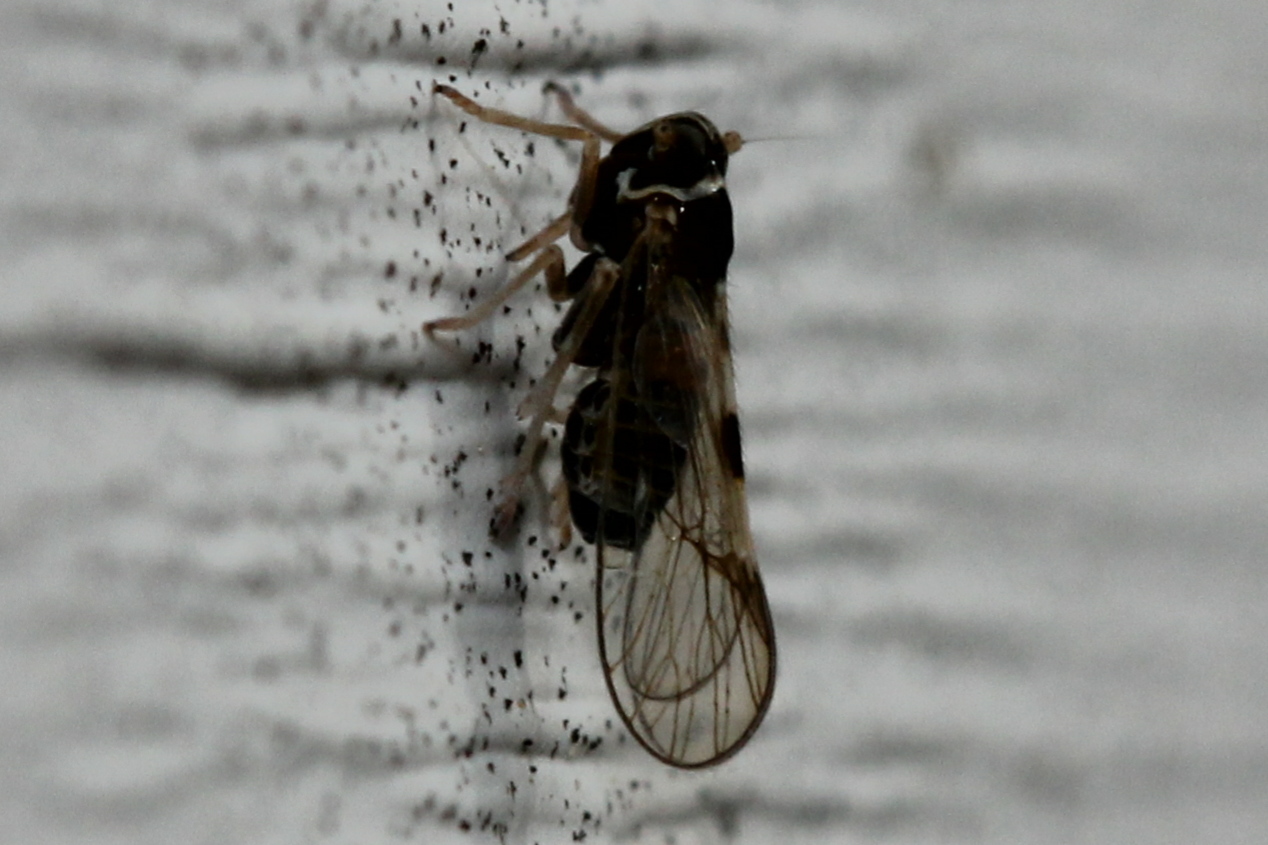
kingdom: Animalia
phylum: Arthropoda
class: Insecta
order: Hemiptera
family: Delphacidae
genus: Chionomus
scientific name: Chionomus
